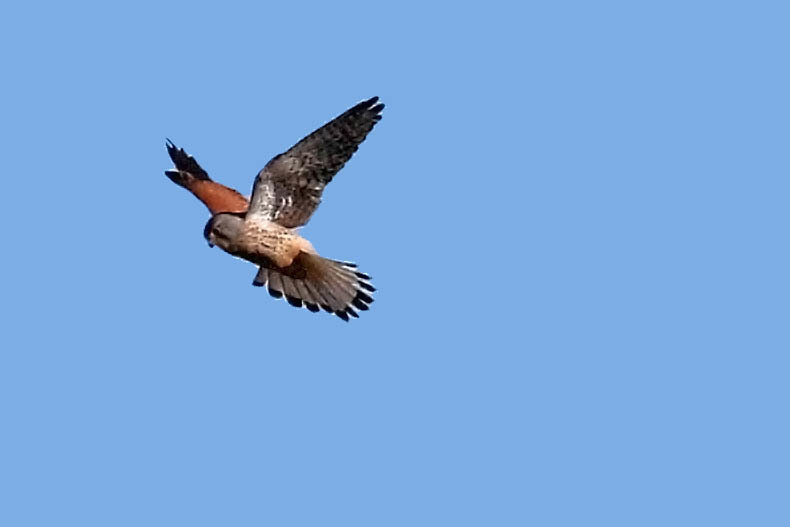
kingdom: Animalia
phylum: Chordata
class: Aves
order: Falconiformes
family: Falconidae
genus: Falco
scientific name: Falco tinnunculus
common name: Common kestrel
